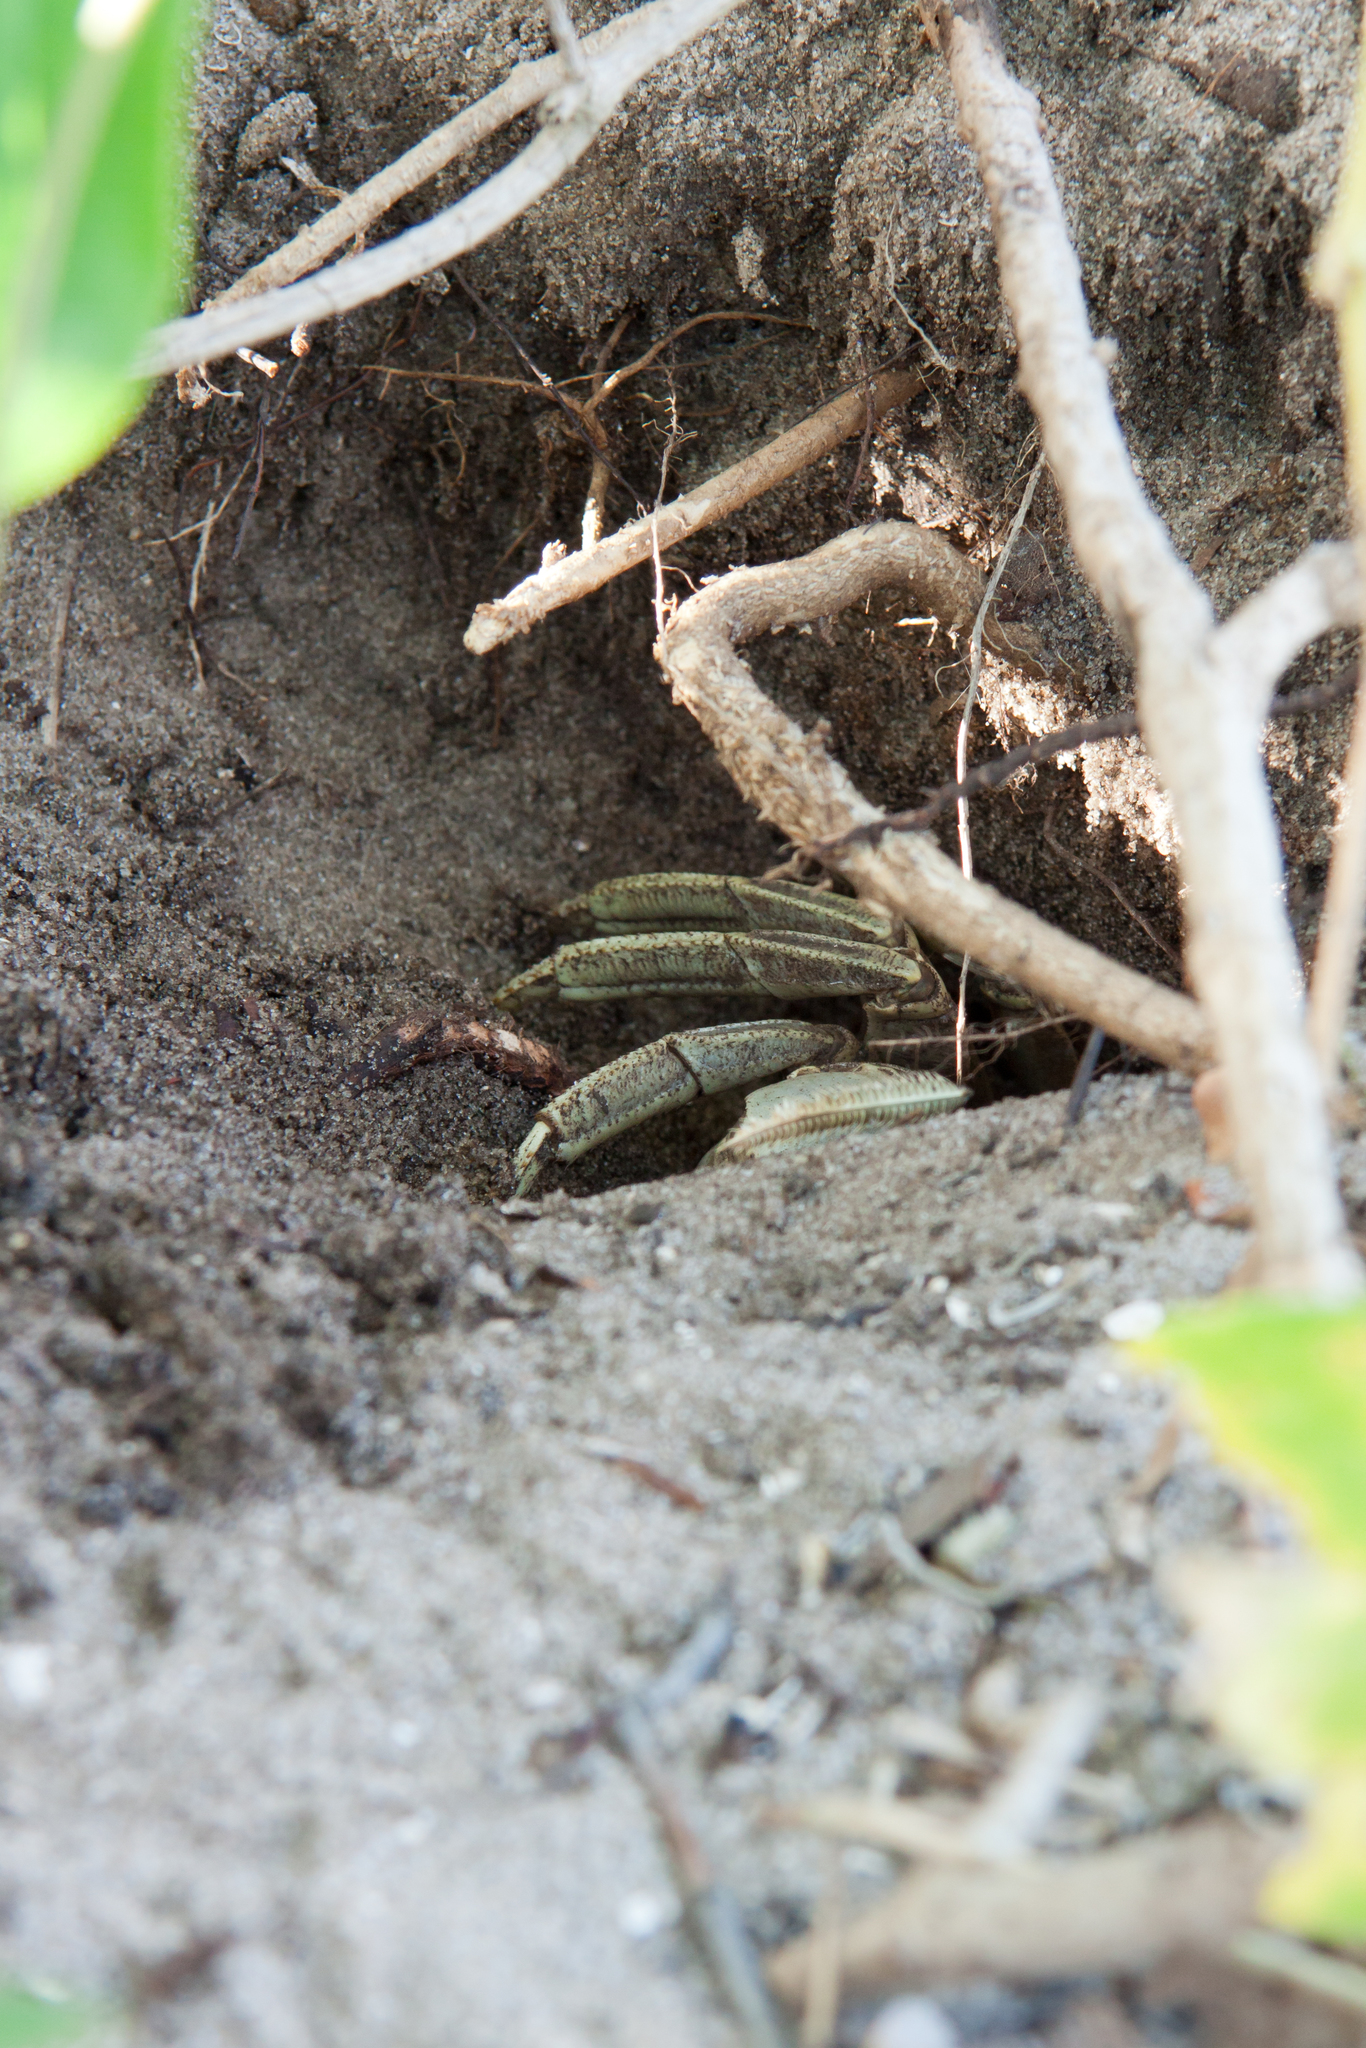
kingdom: Animalia
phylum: Arthropoda
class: Malacostraca
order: Decapoda
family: Gecarcinidae
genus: Cardisoma
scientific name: Cardisoma guanhumi
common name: Great land crab
